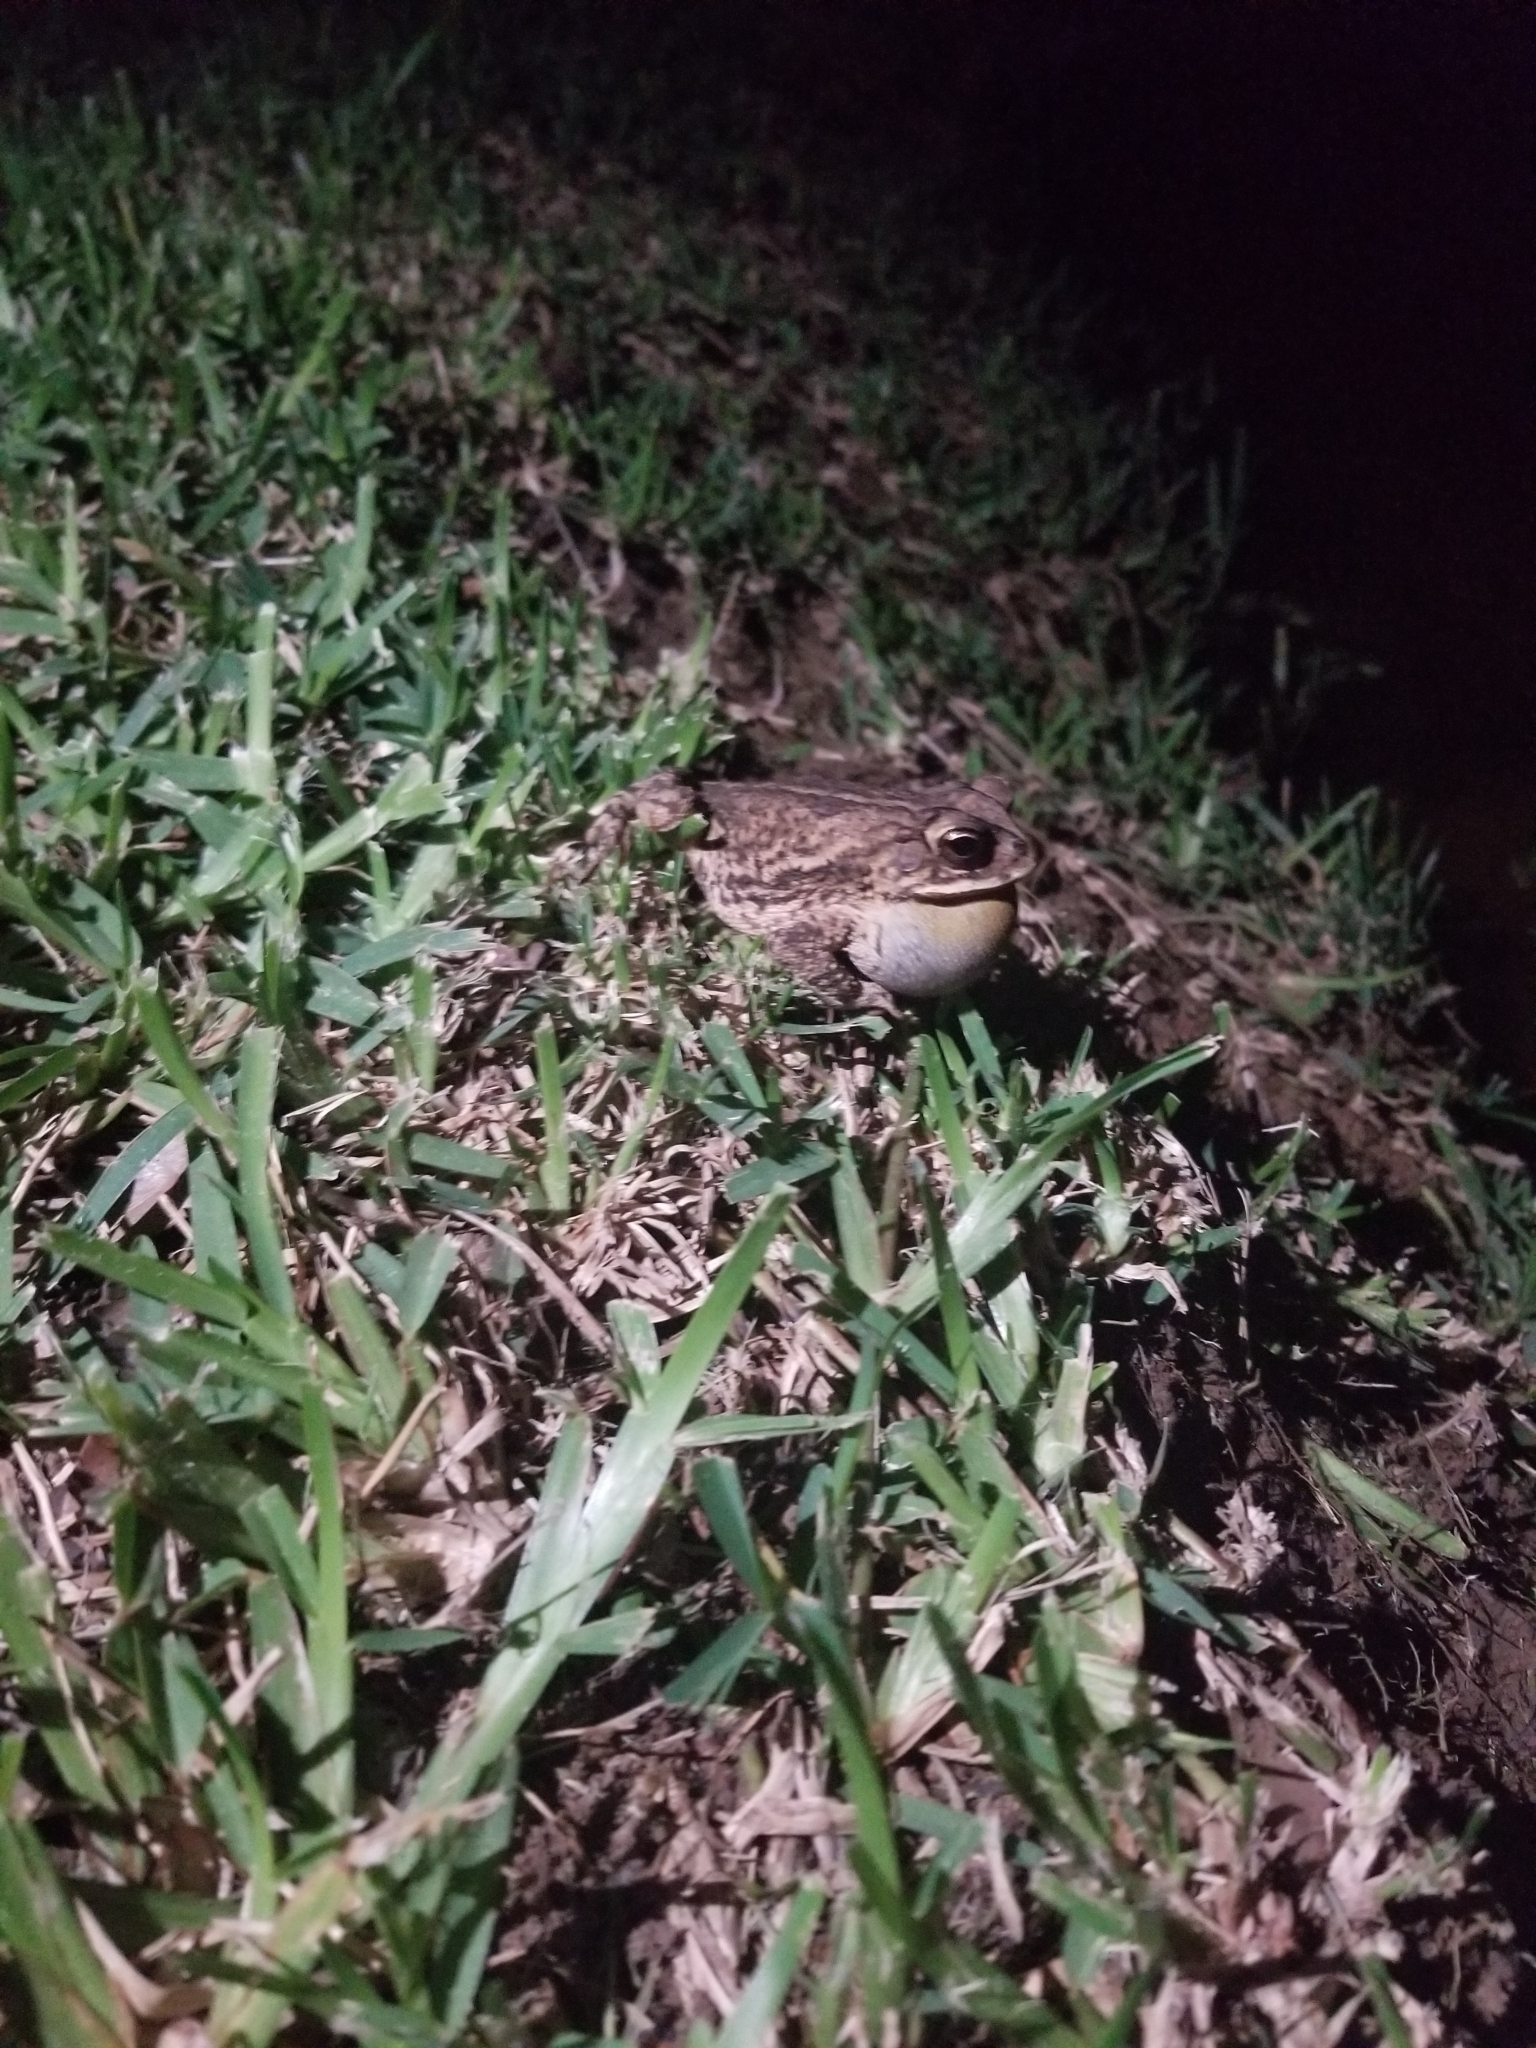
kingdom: Animalia
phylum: Chordata
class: Amphibia
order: Anura
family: Bufonidae
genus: Incilius
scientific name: Incilius nebulifer
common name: Gulf coast toad
